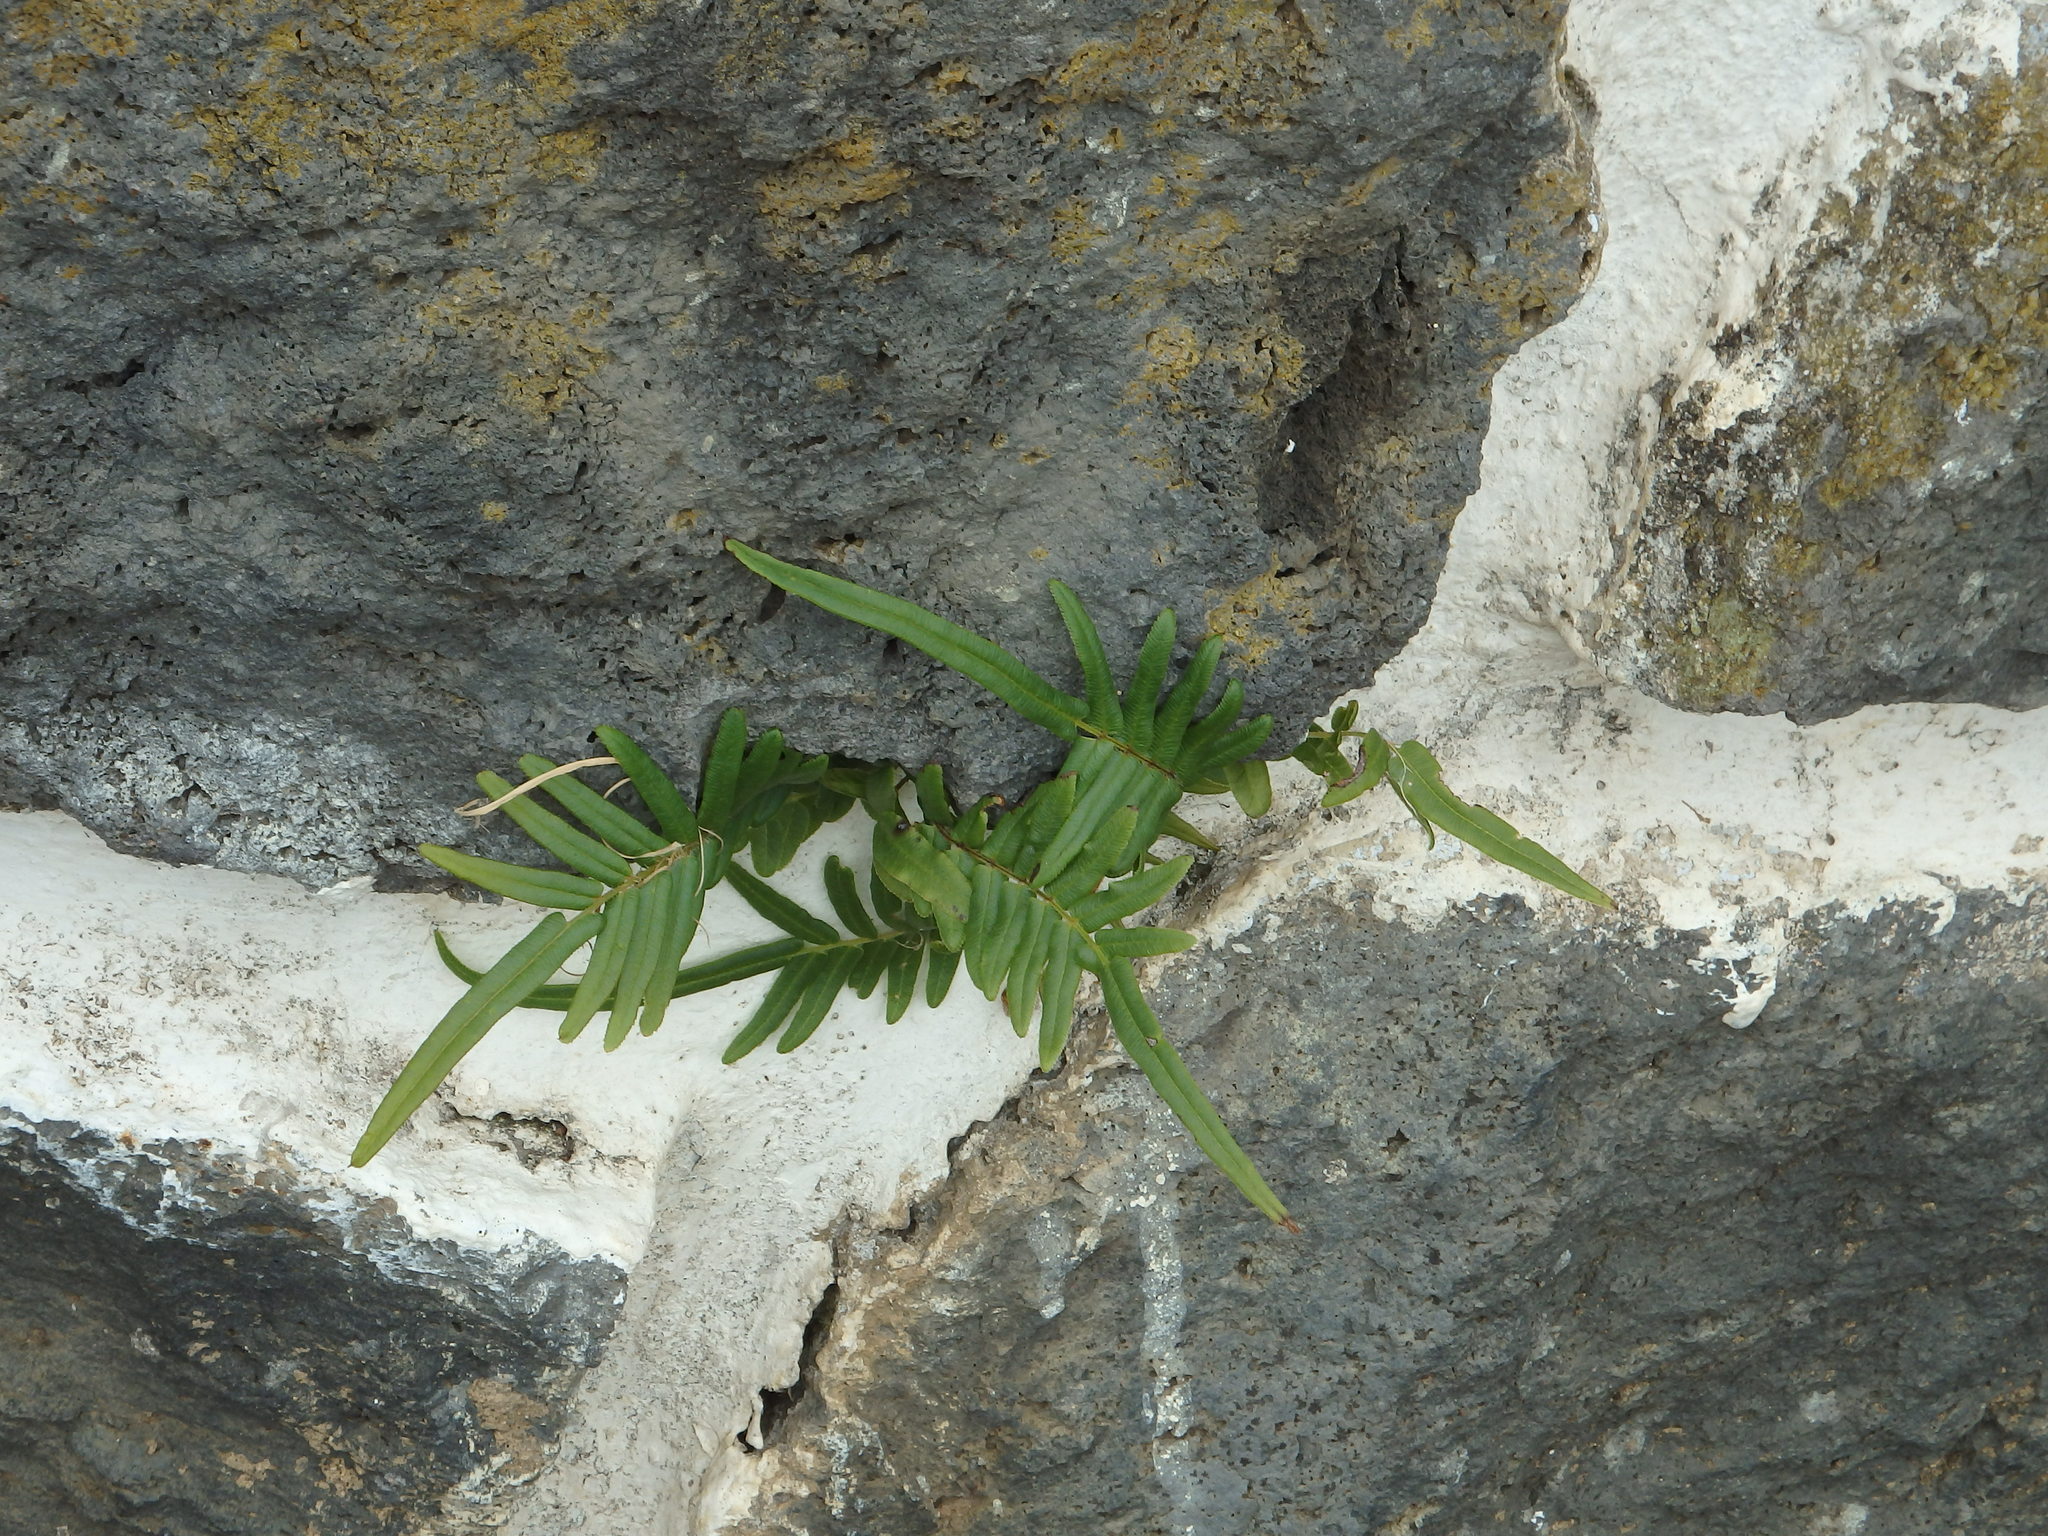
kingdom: Plantae
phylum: Tracheophyta
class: Polypodiopsida
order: Polypodiales
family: Pteridaceae
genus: Pteris
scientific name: Pteris vittata
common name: Ladder brake
